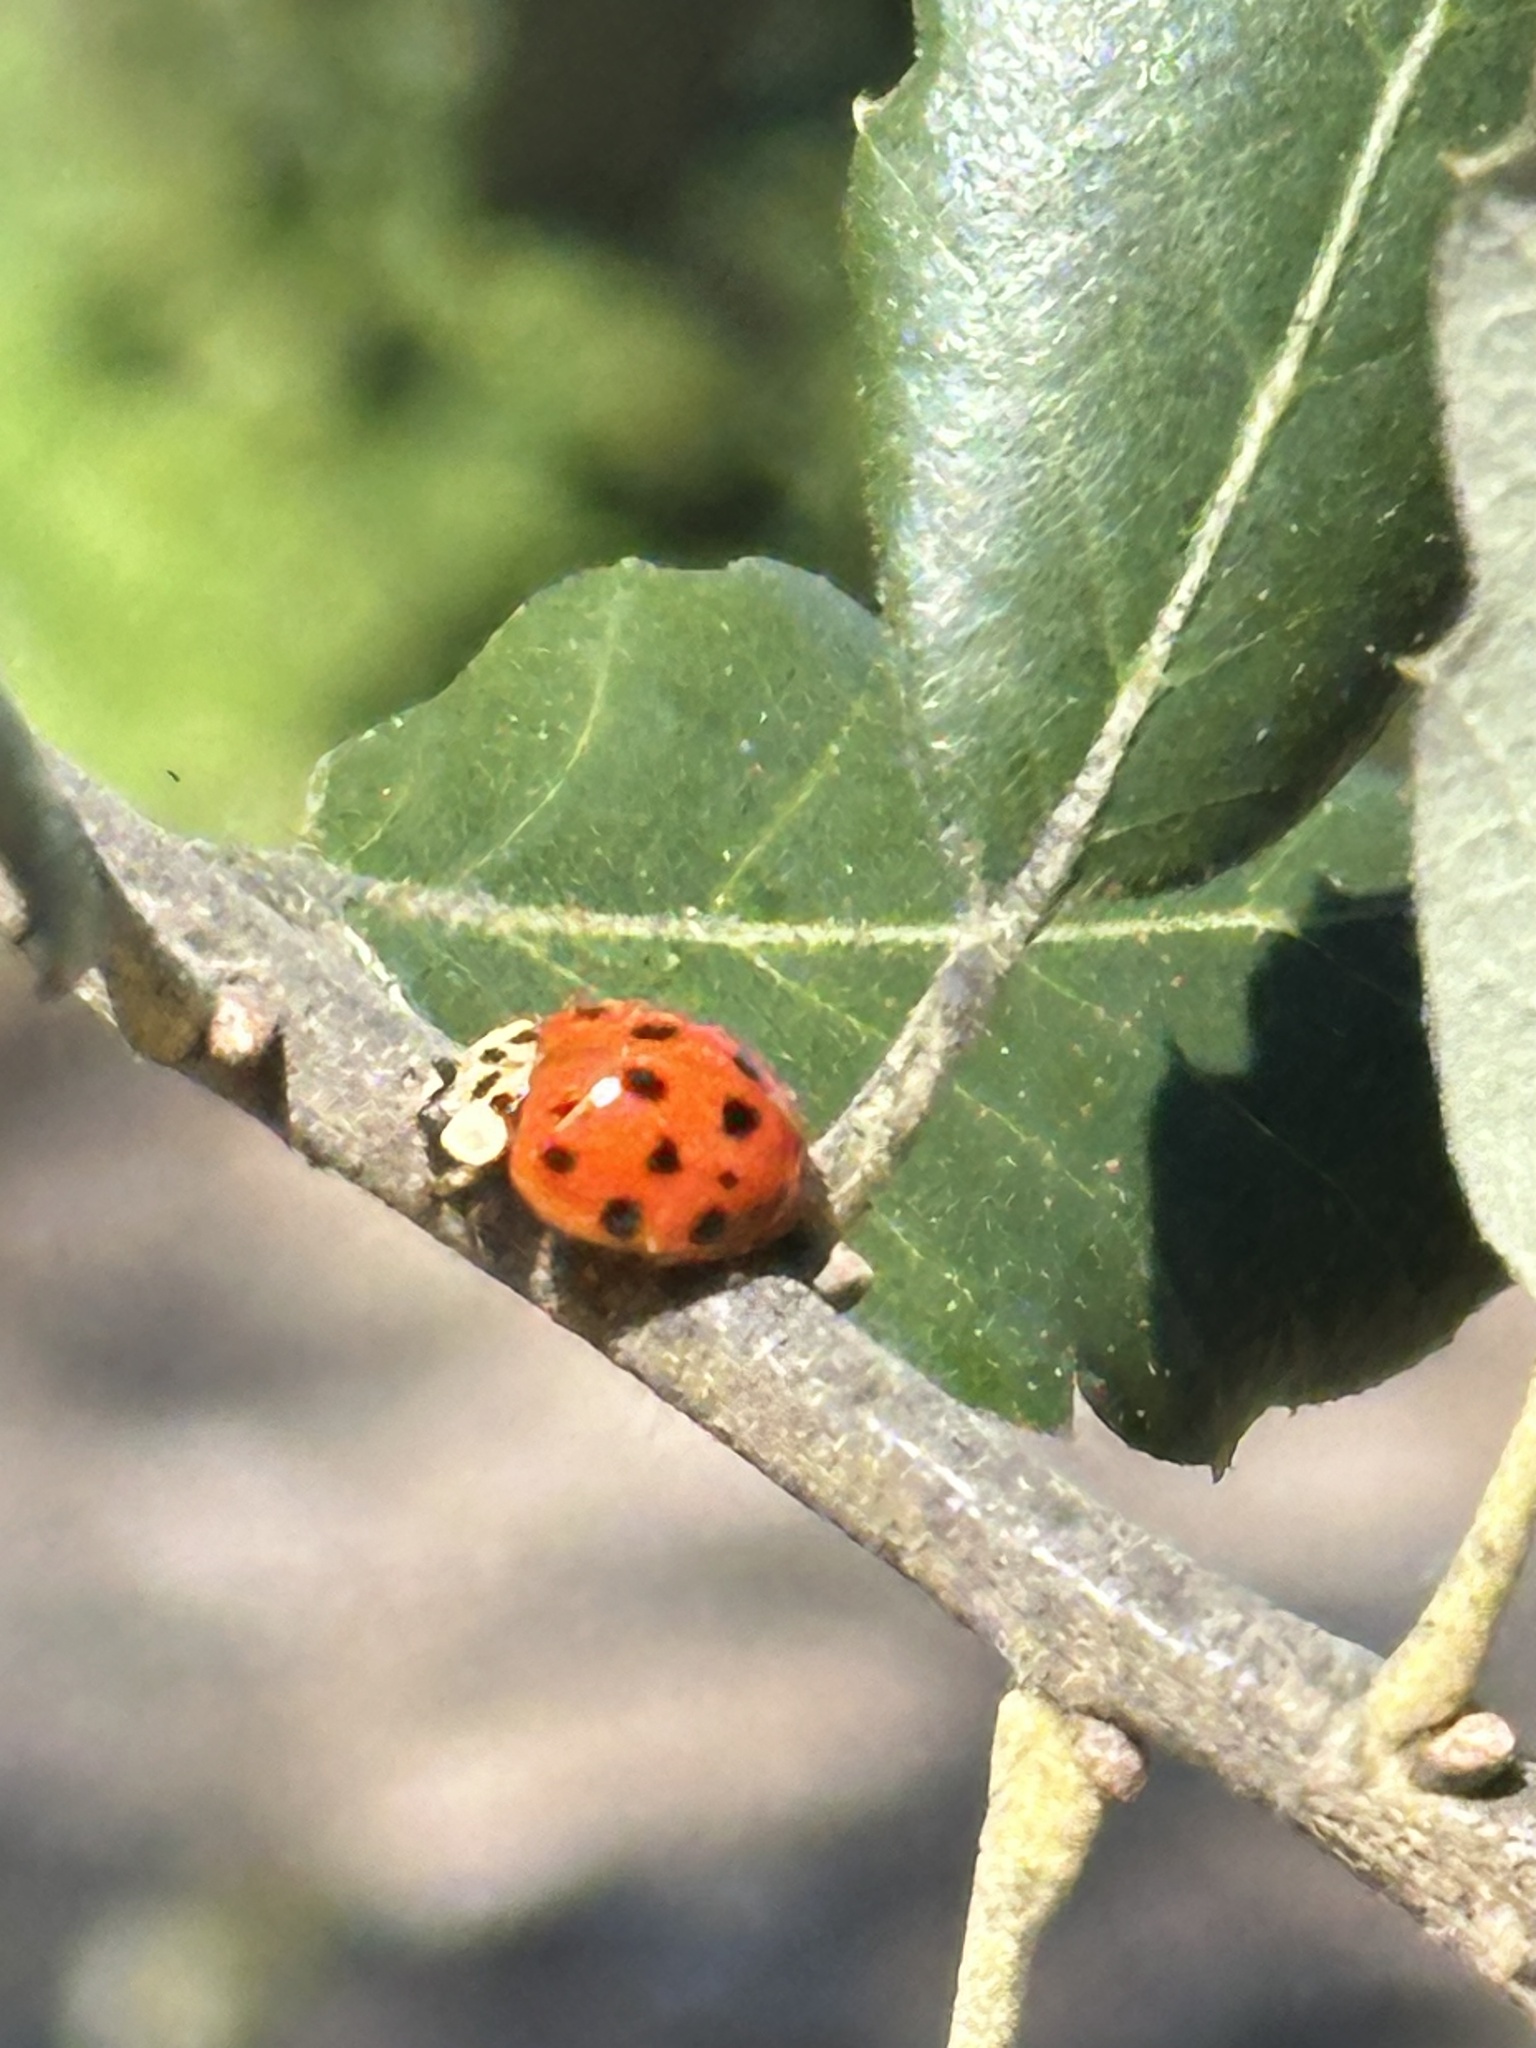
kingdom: Animalia
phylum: Arthropoda
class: Insecta
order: Coleoptera
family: Coccinellidae
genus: Harmonia
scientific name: Harmonia axyridis
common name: Harlequin ladybird
